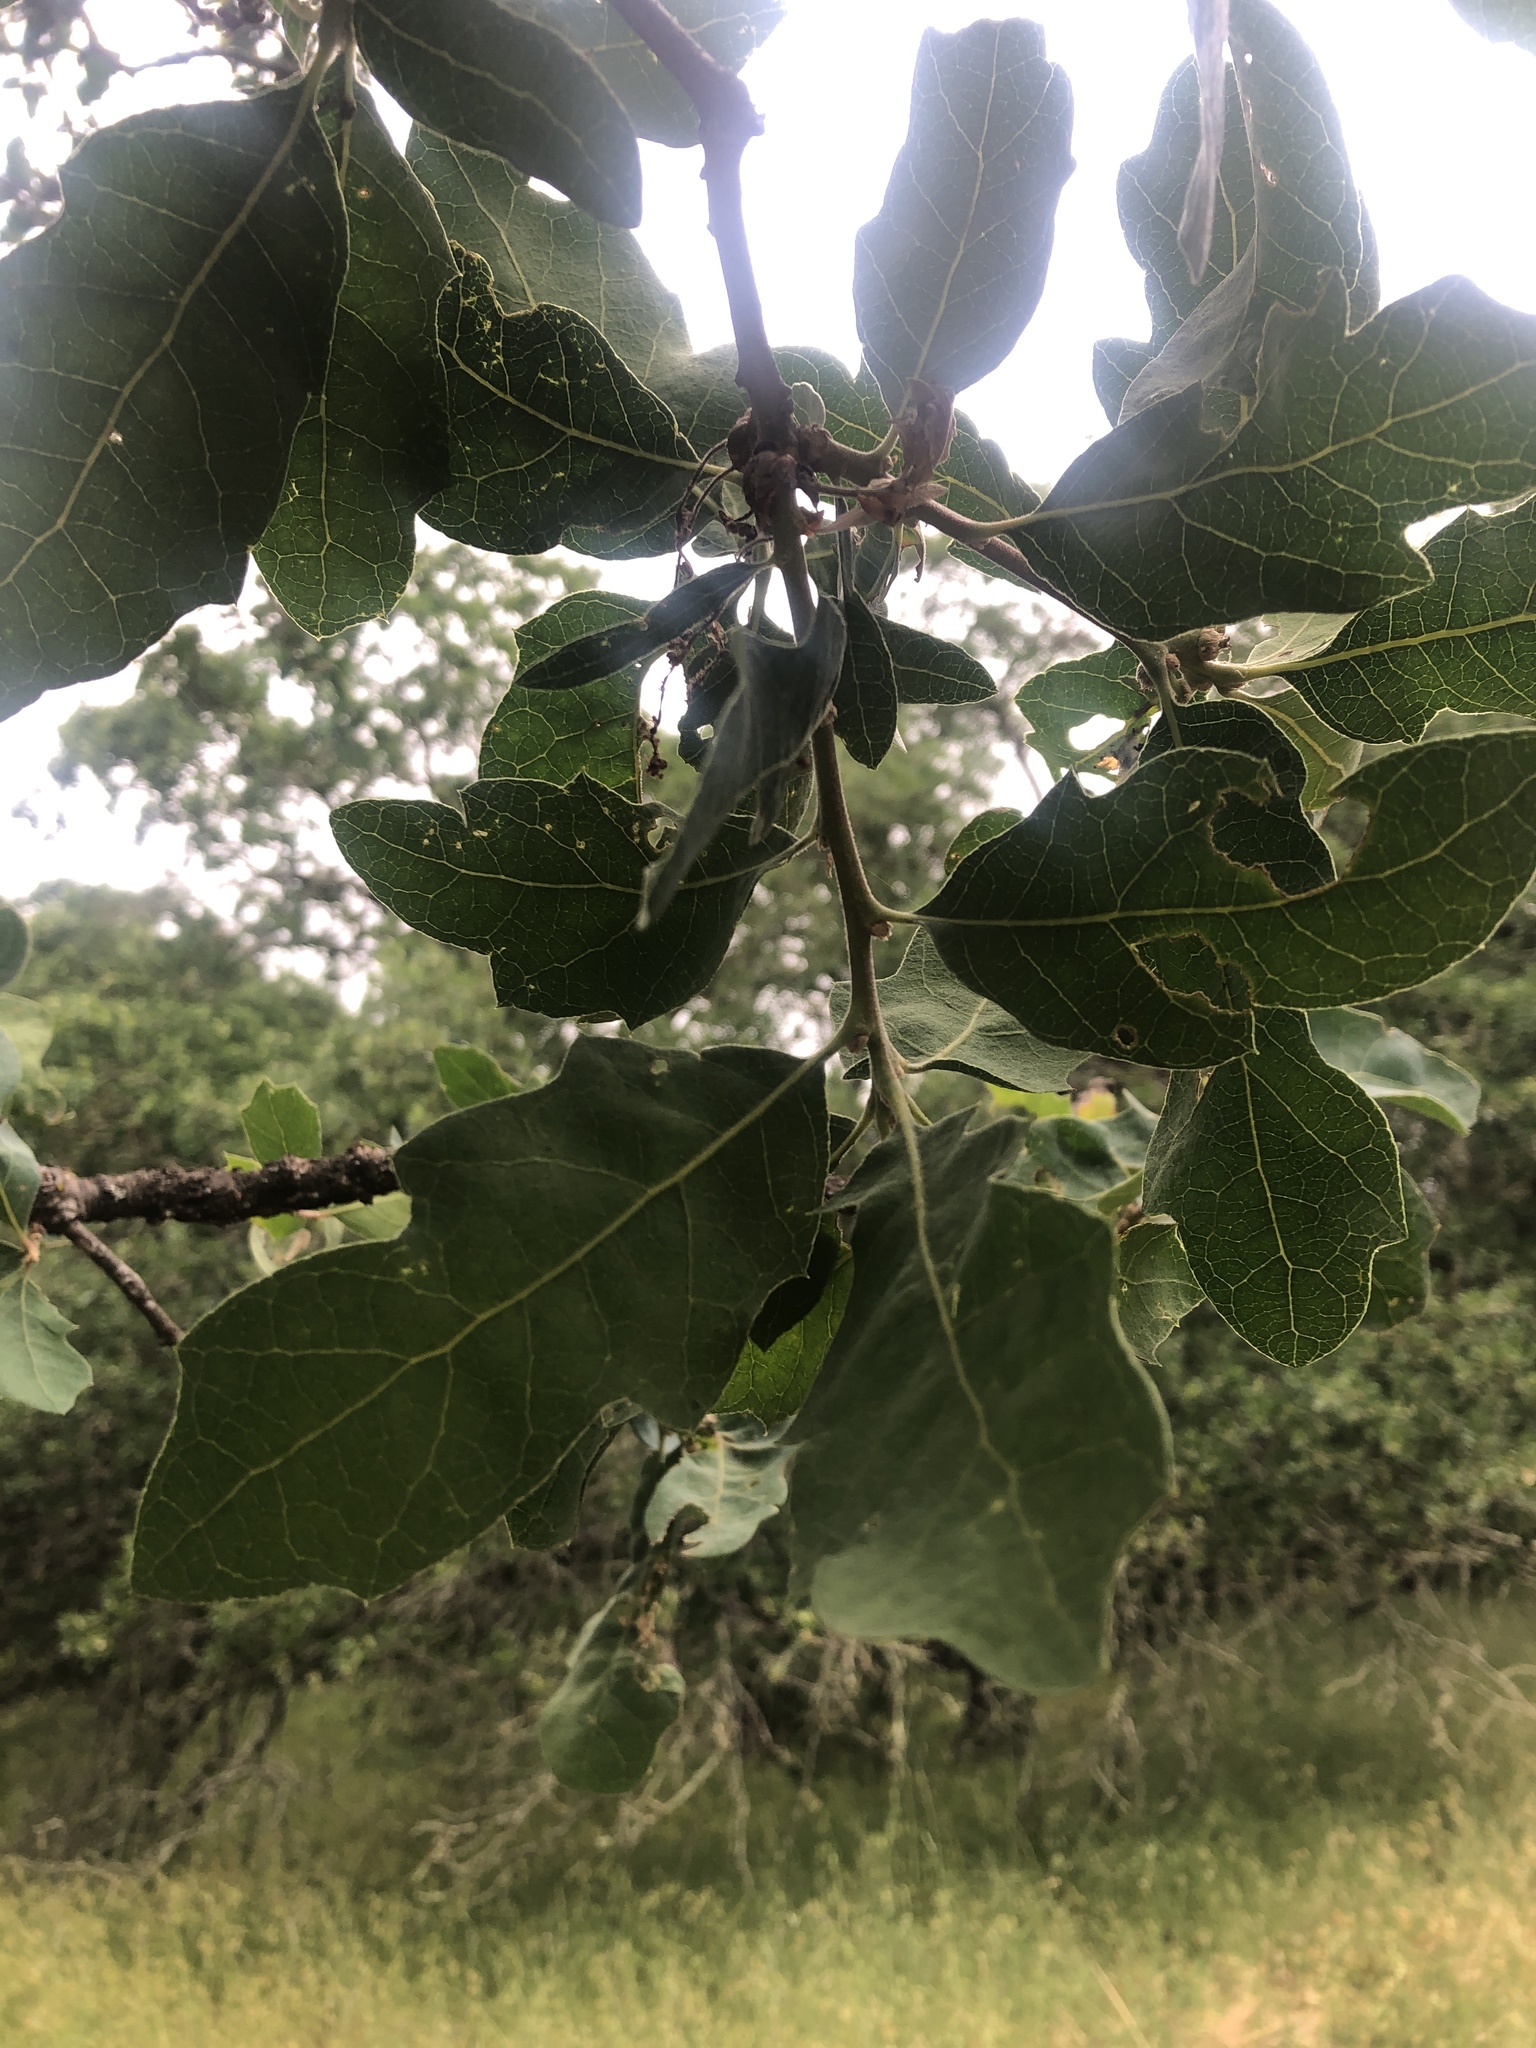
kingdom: Plantae
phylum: Tracheophyta
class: Magnoliopsida
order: Fagales
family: Fagaceae
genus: Quercus
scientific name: Quercus douglasii
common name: Blue oak
